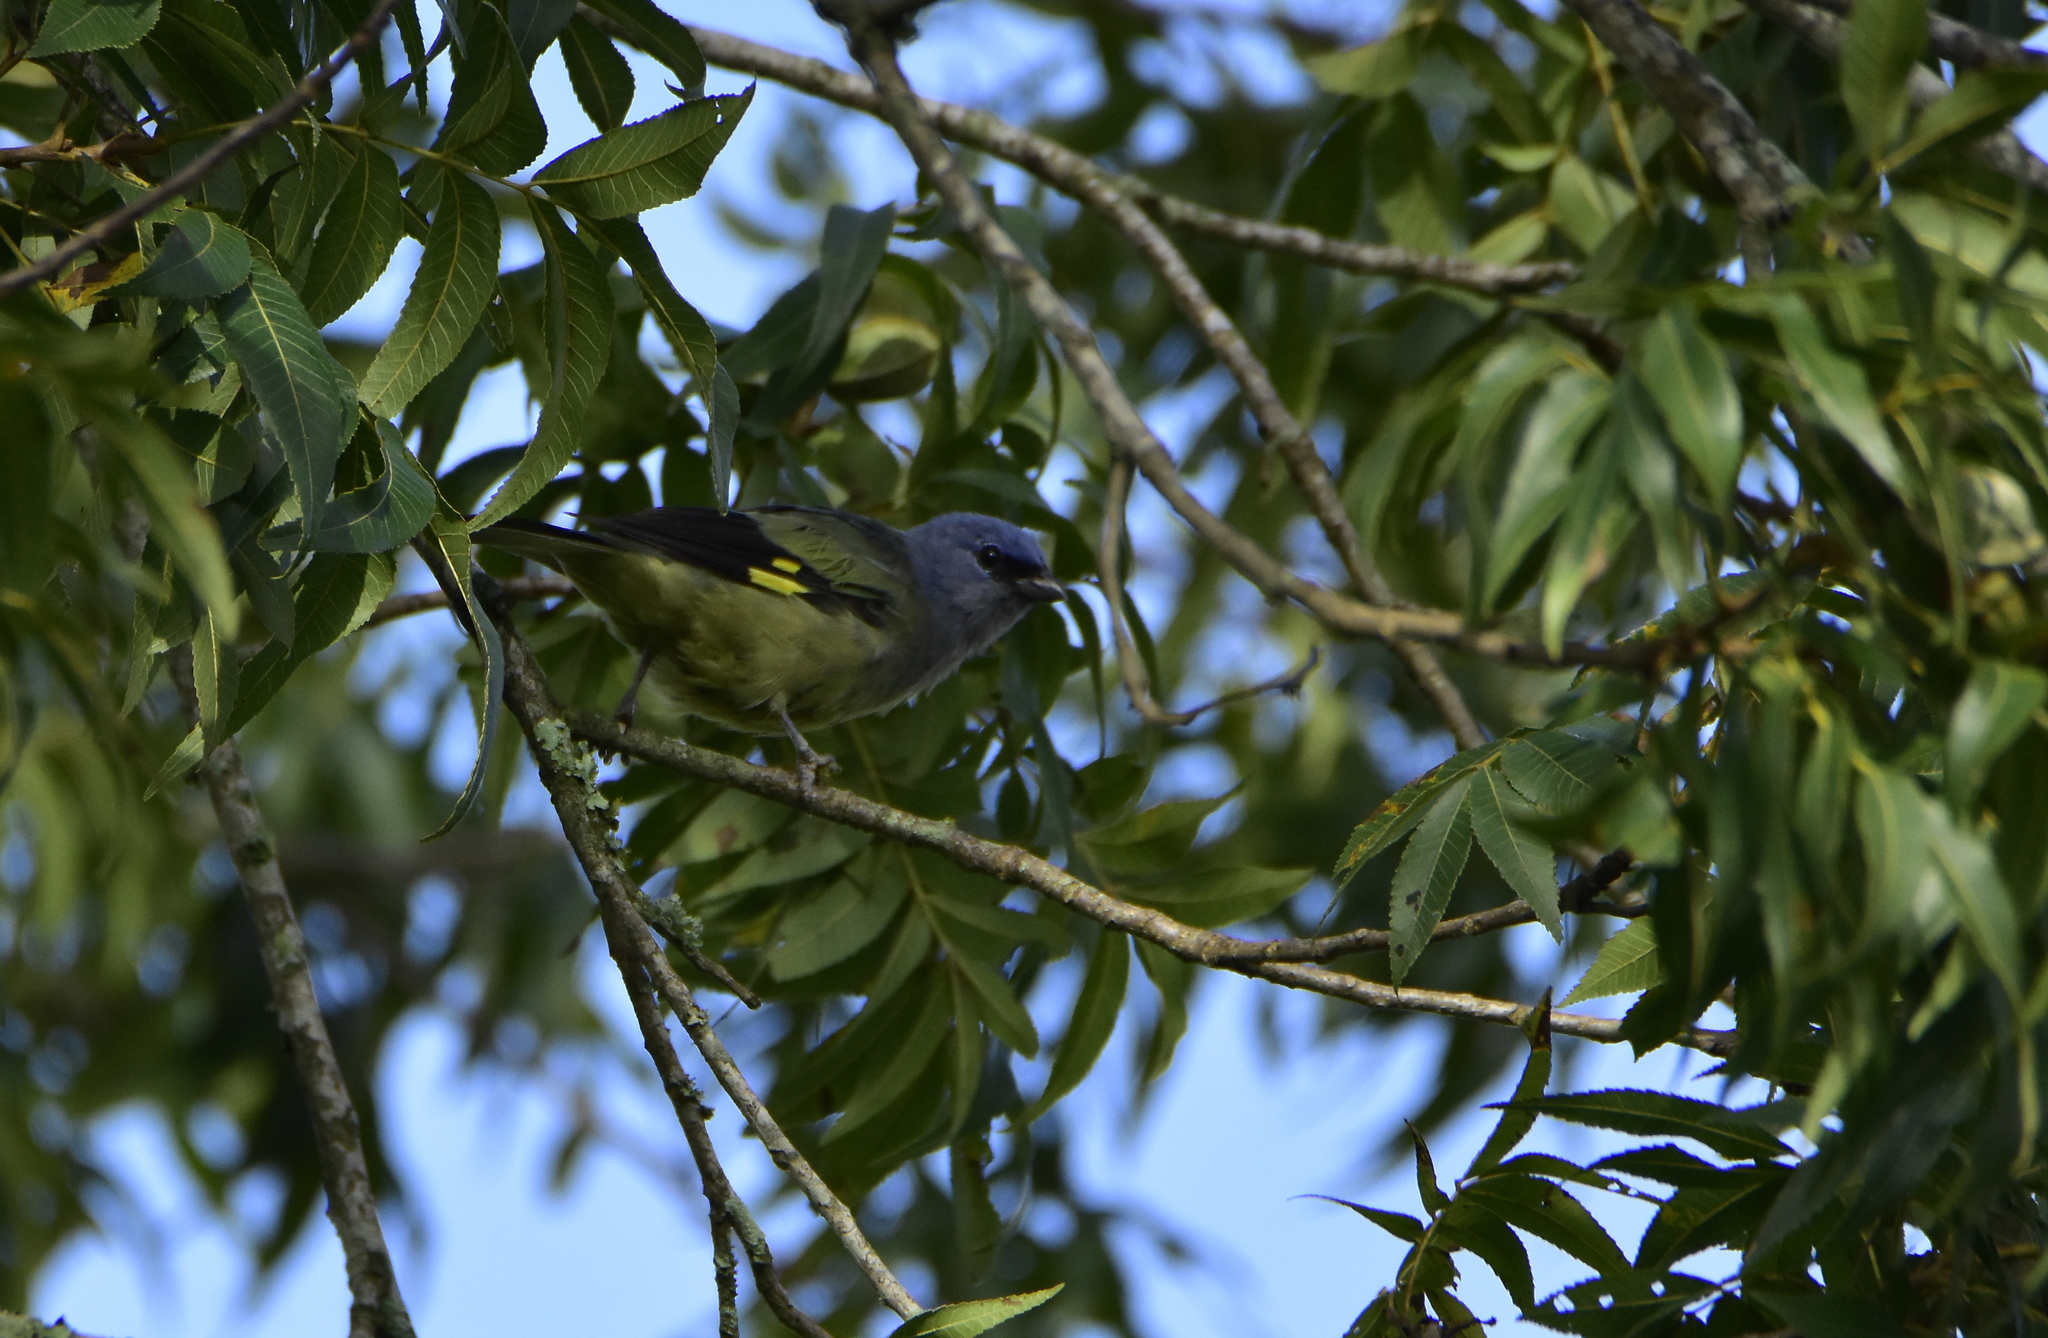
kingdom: Animalia
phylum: Chordata
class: Aves
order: Passeriformes
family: Thraupidae
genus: Thraupis
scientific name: Thraupis abbas
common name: Yellow-winged tanager
